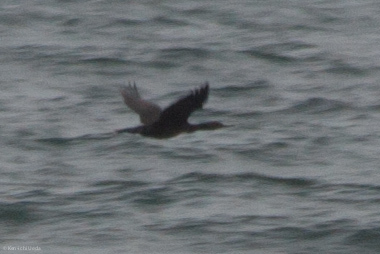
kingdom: Animalia
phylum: Chordata
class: Aves
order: Suliformes
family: Phalacrocoracidae
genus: Phalacrocorax
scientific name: Phalacrocorax pelagicus
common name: Pelagic cormorant
